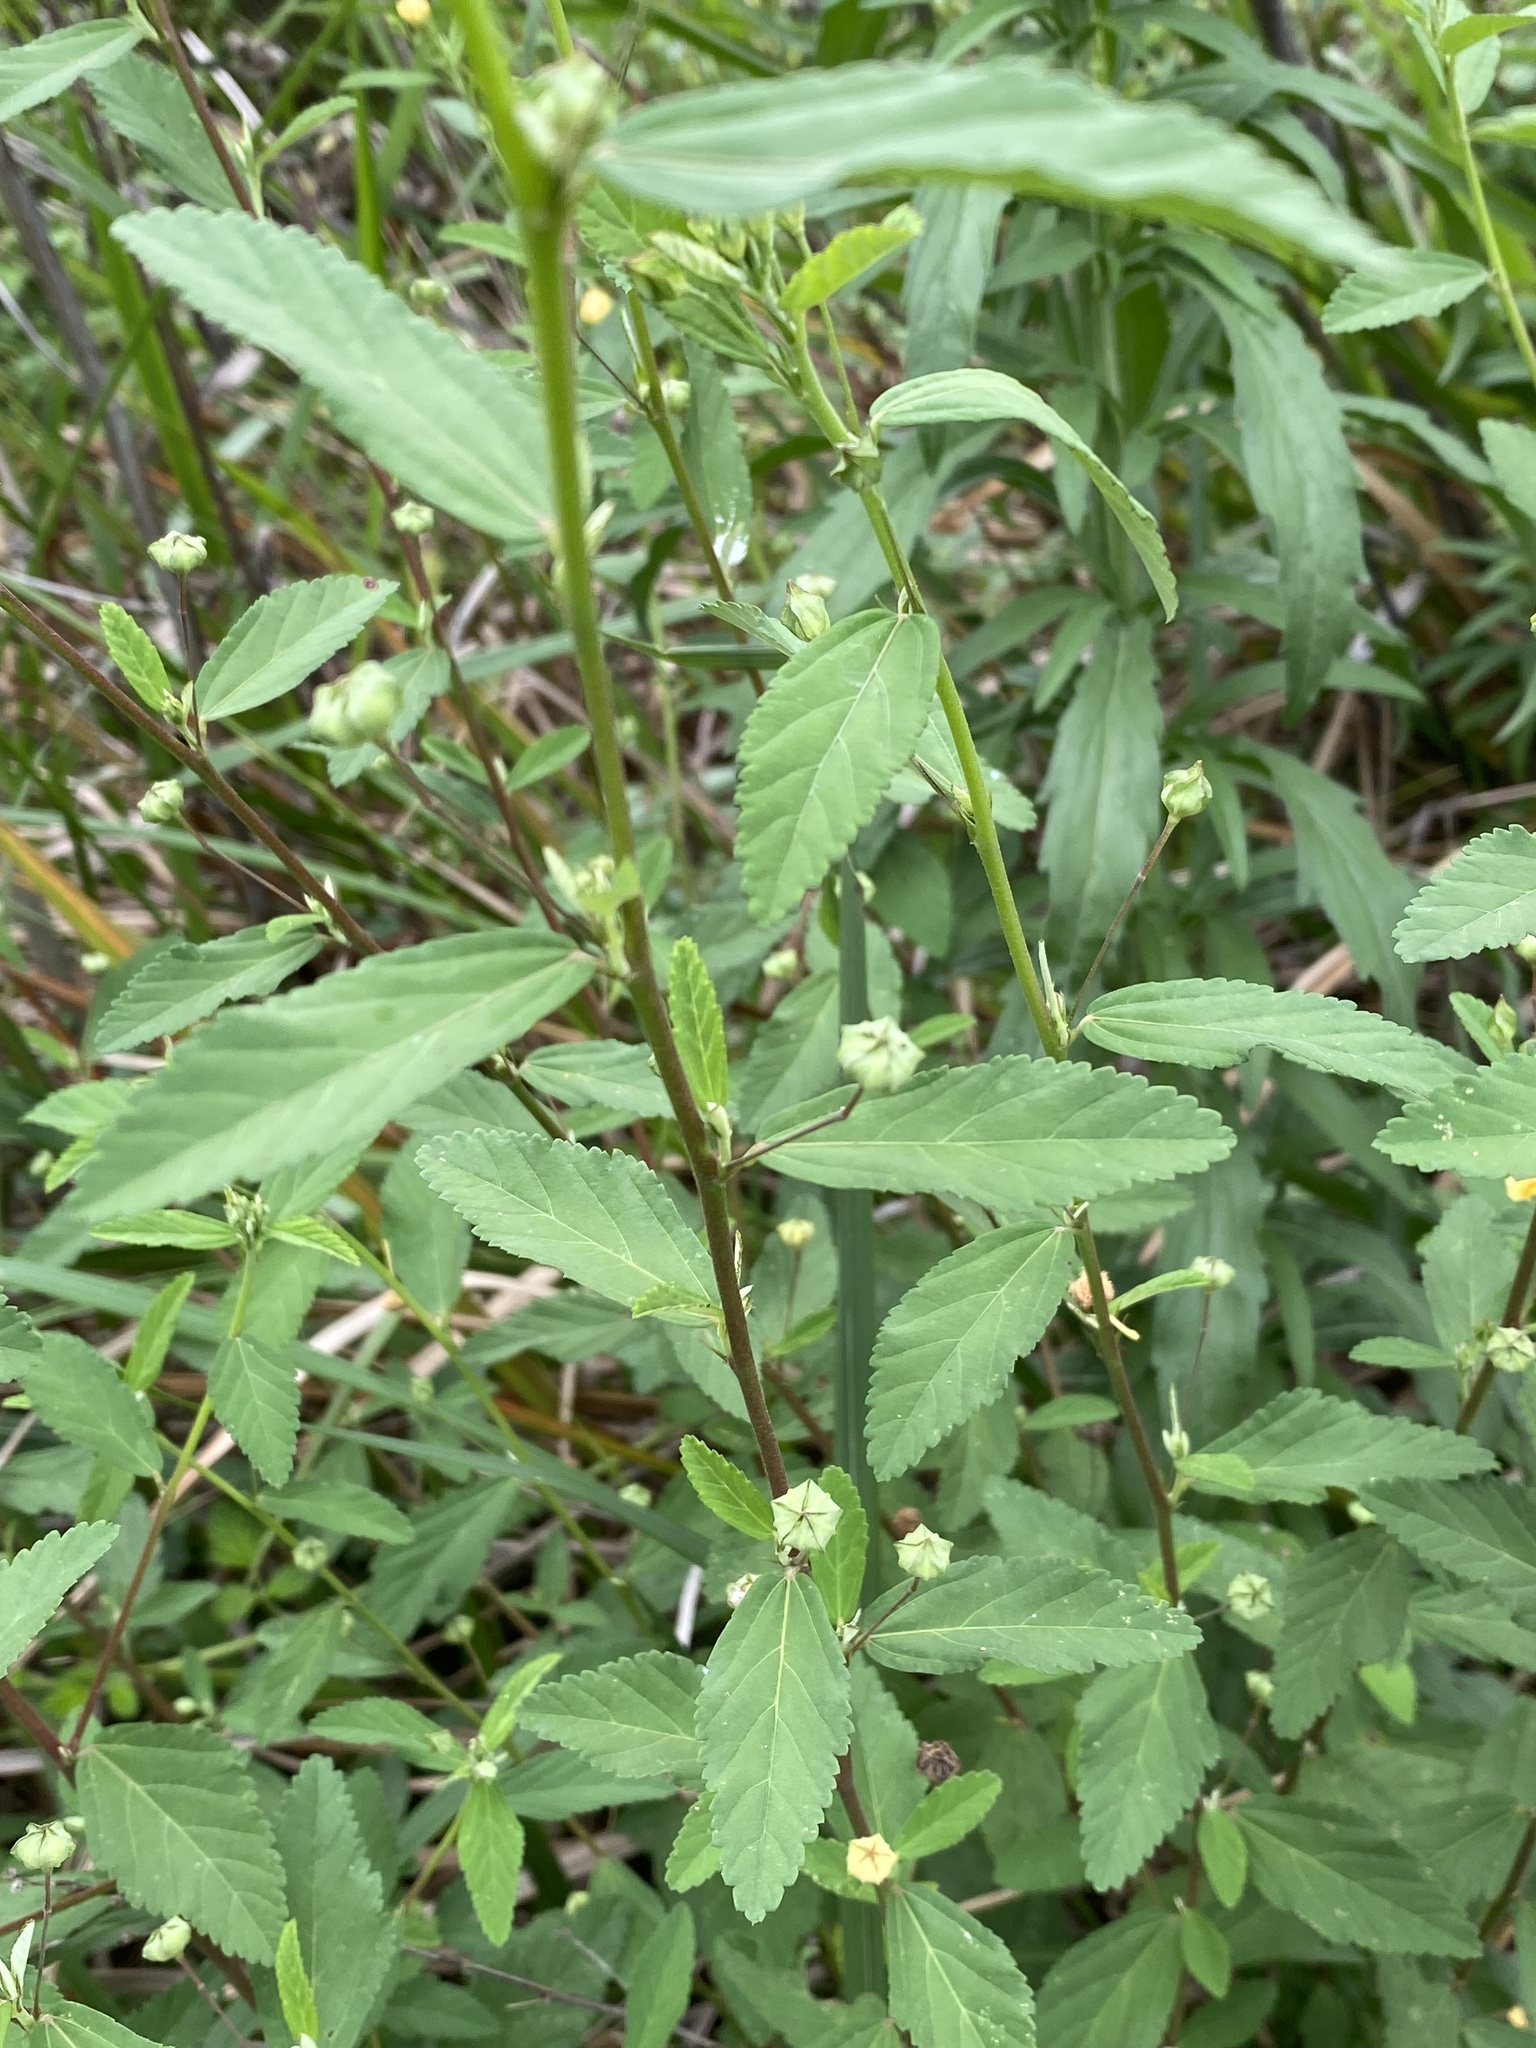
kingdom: Plantae
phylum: Tracheophyta
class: Magnoliopsida
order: Malvales
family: Malvaceae
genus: Sida
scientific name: Sida rhombifolia
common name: Queensland-hemp
